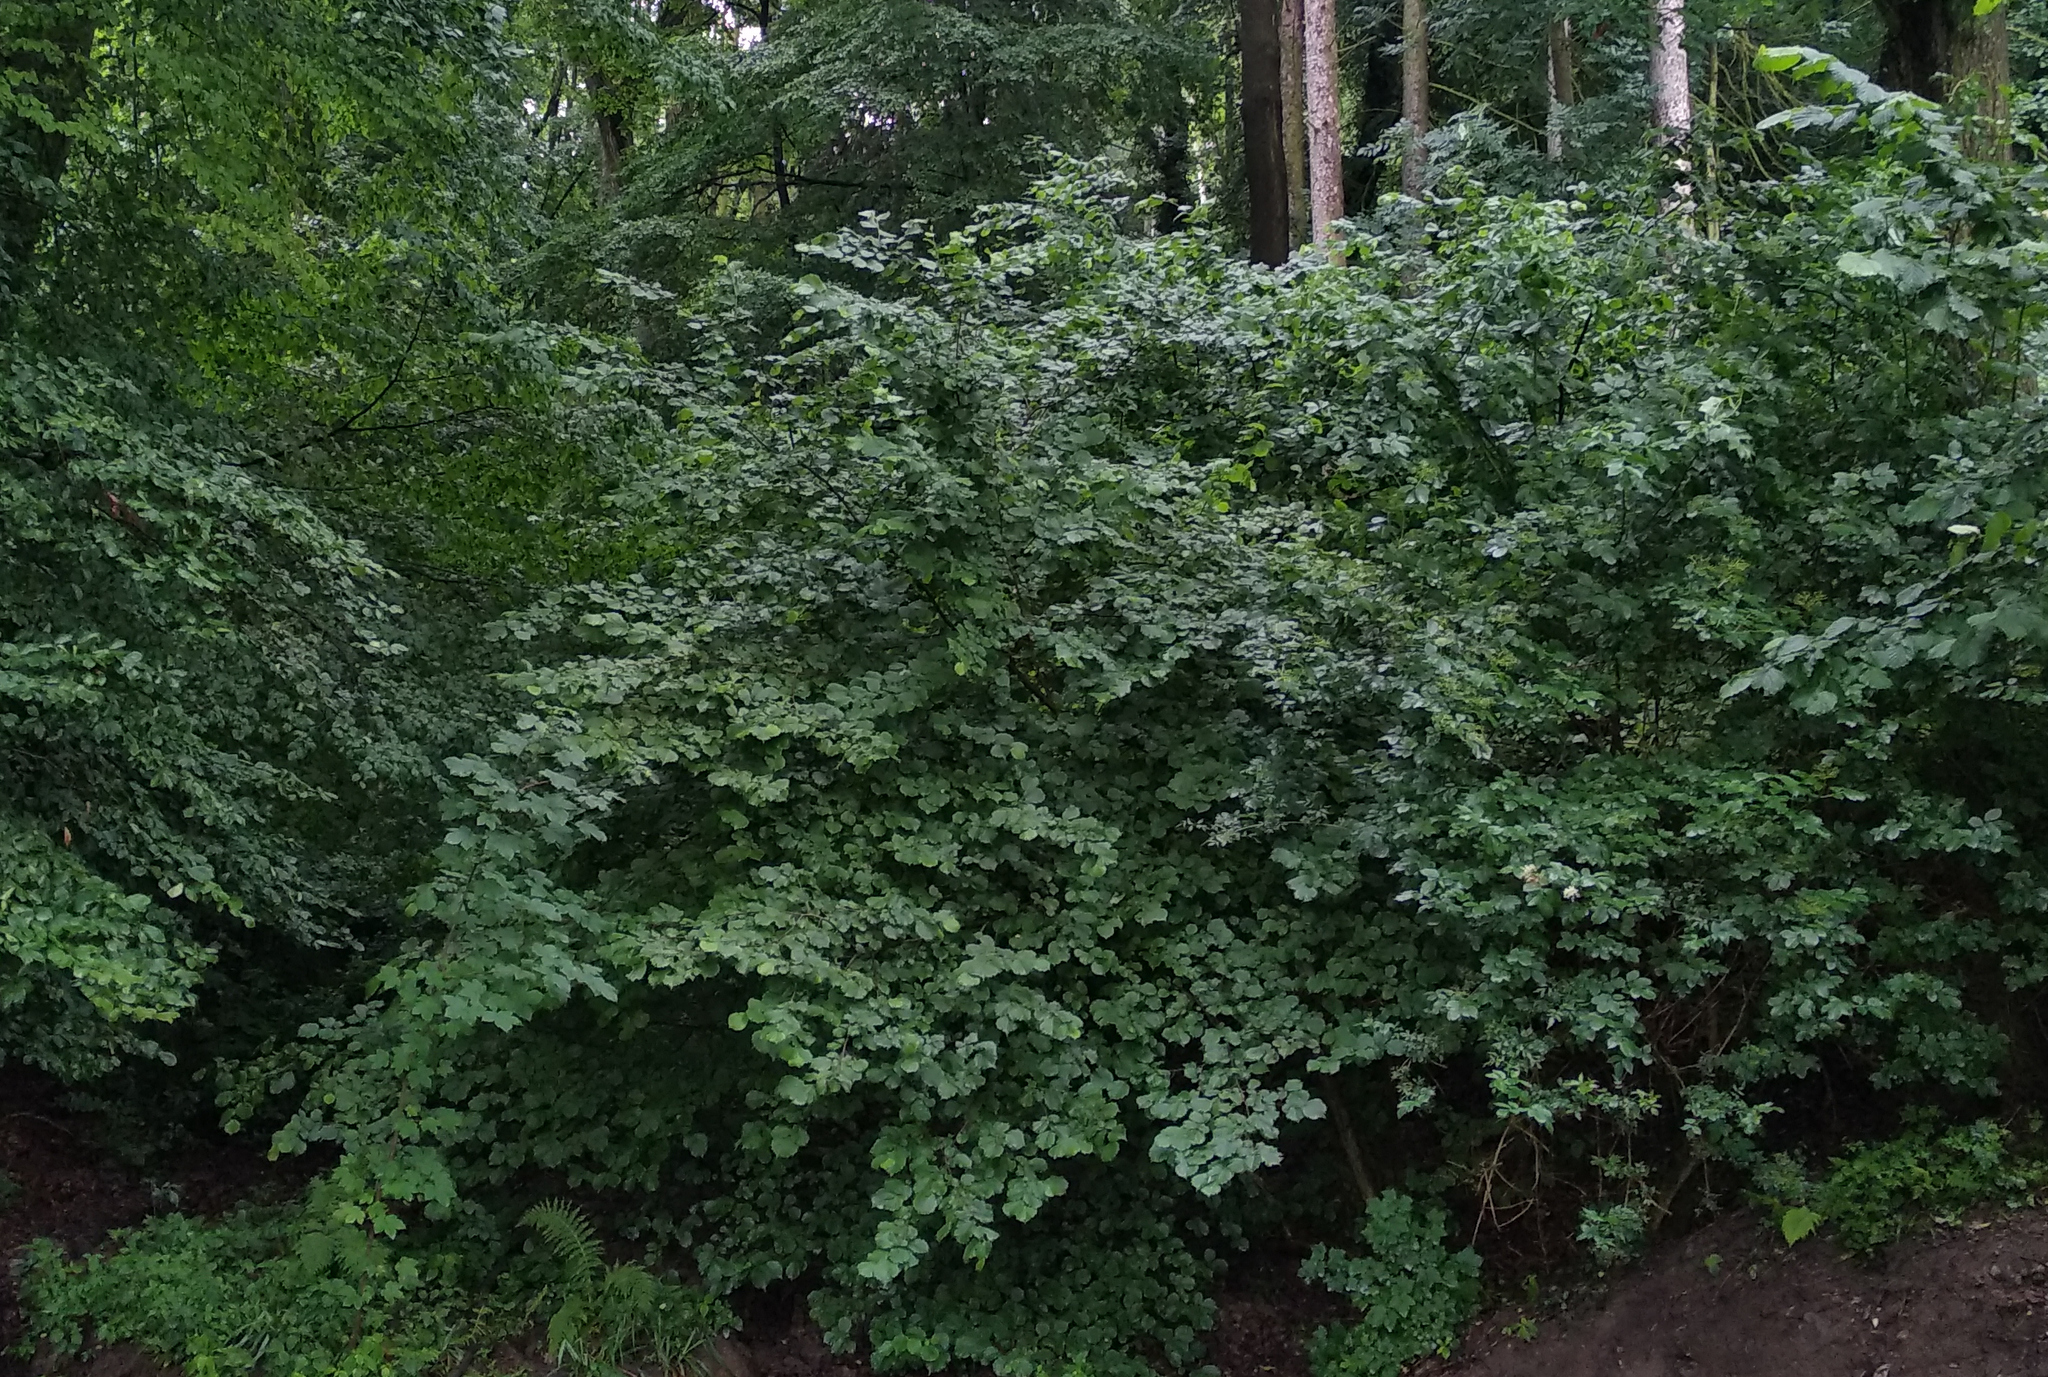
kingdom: Plantae
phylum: Tracheophyta
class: Magnoliopsida
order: Fagales
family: Betulaceae
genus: Corylus
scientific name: Corylus avellana
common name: European hazel
